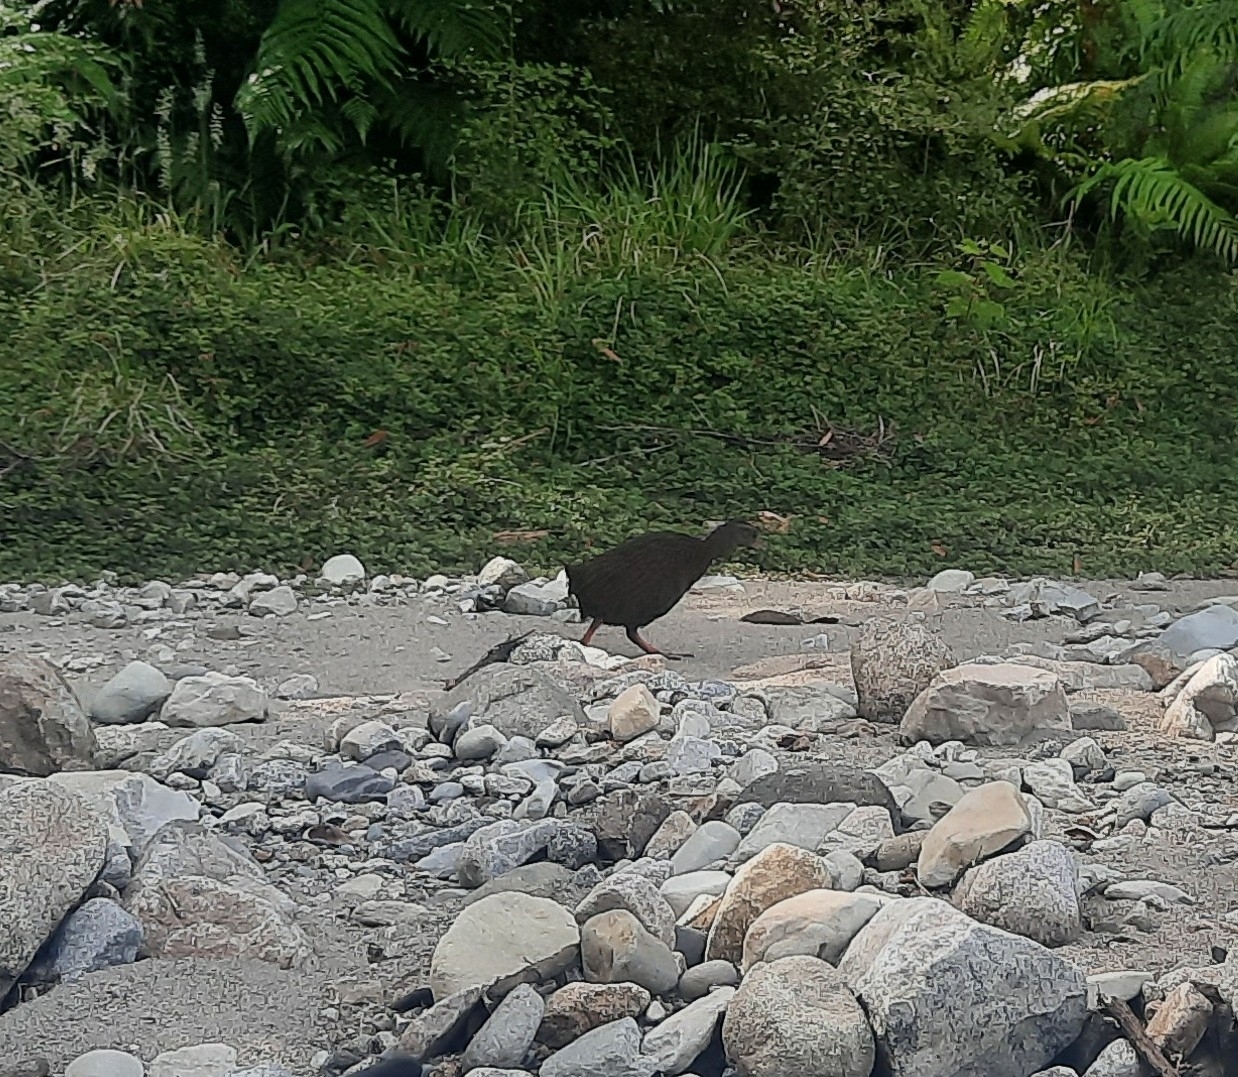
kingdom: Animalia
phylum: Chordata
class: Aves
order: Gruiformes
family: Rallidae
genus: Gallirallus
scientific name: Gallirallus australis
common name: Weka
